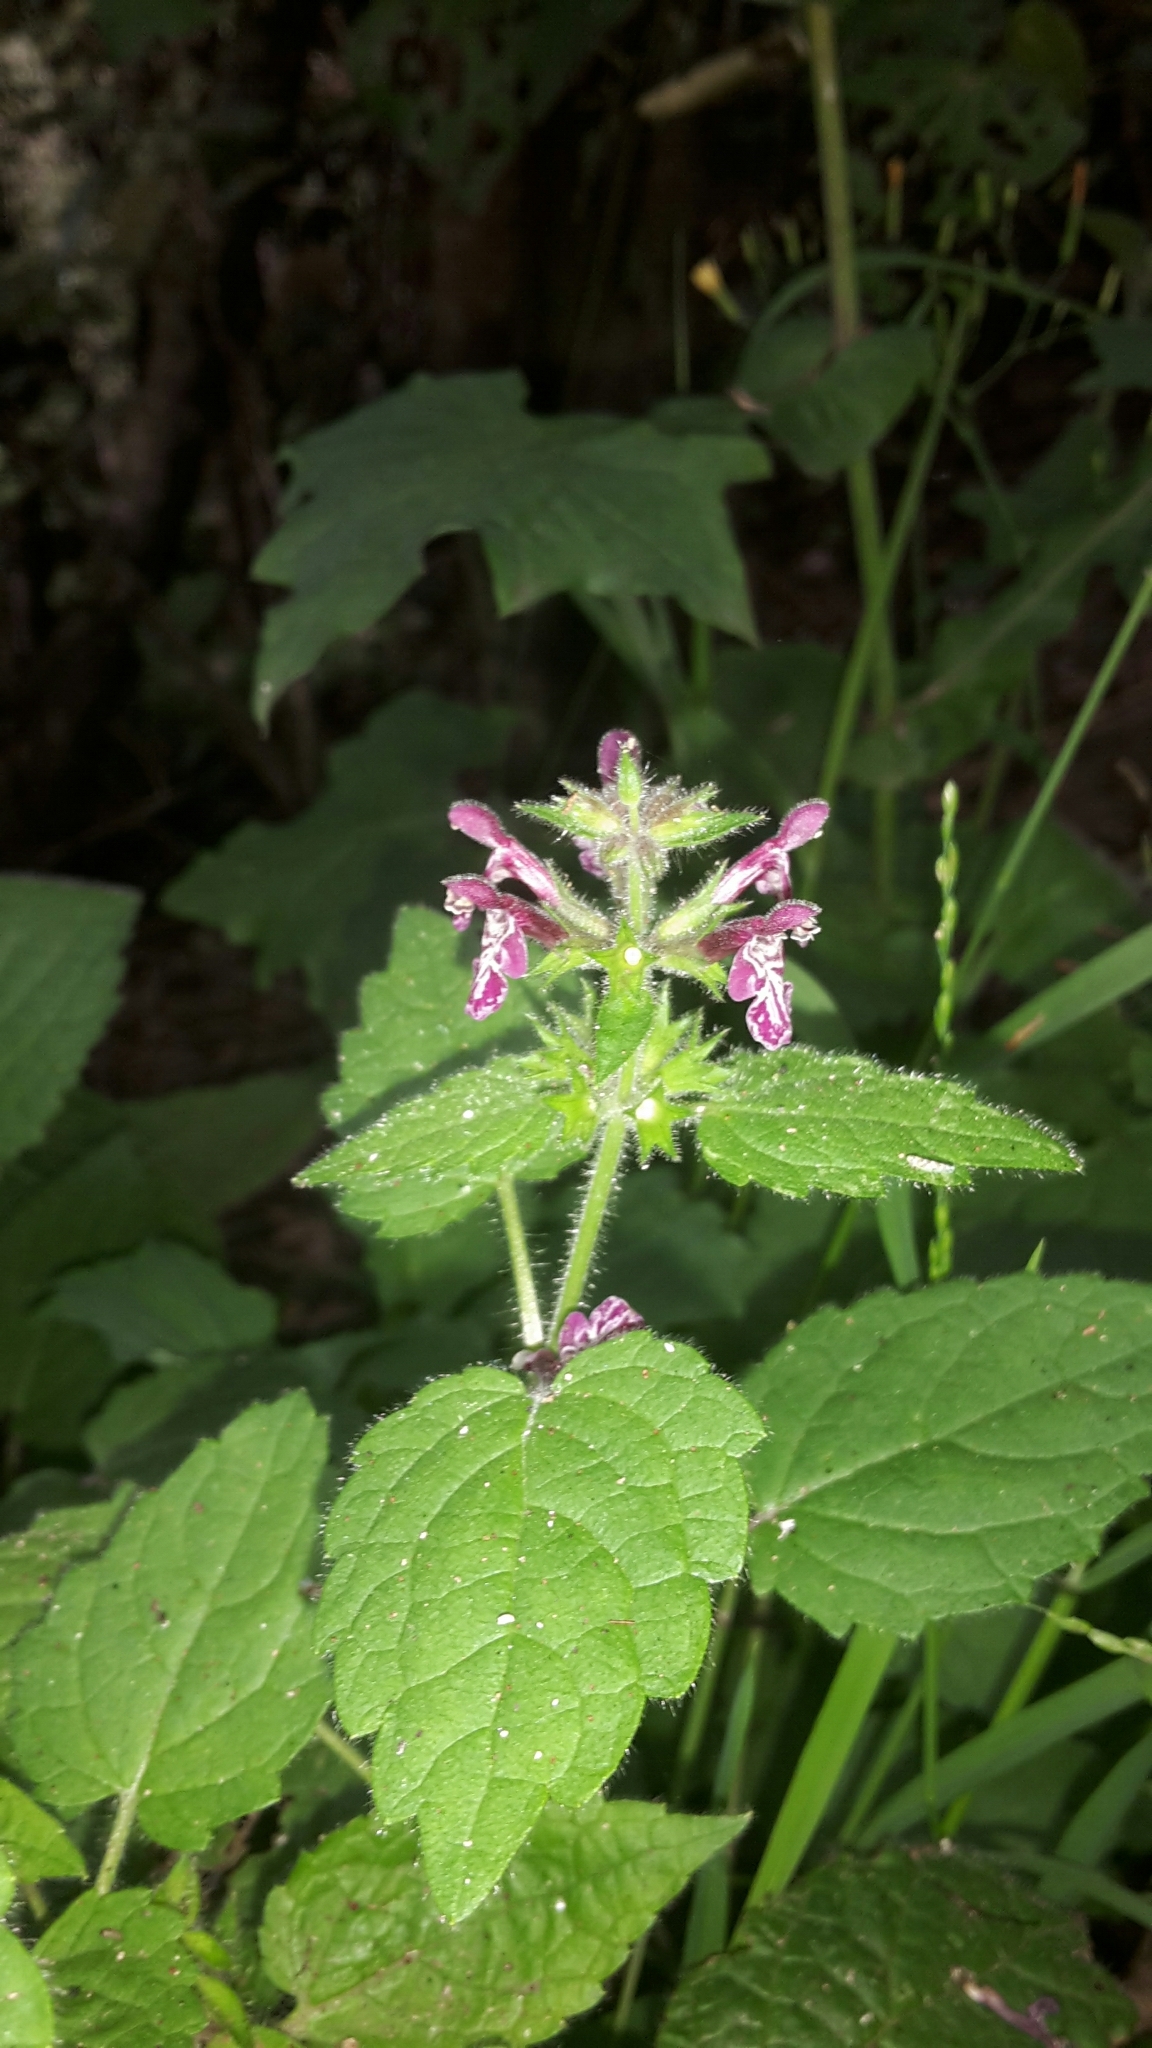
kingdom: Plantae
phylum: Tracheophyta
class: Magnoliopsida
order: Lamiales
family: Lamiaceae
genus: Stachys
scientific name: Stachys sylvatica
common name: Hedge woundwort
